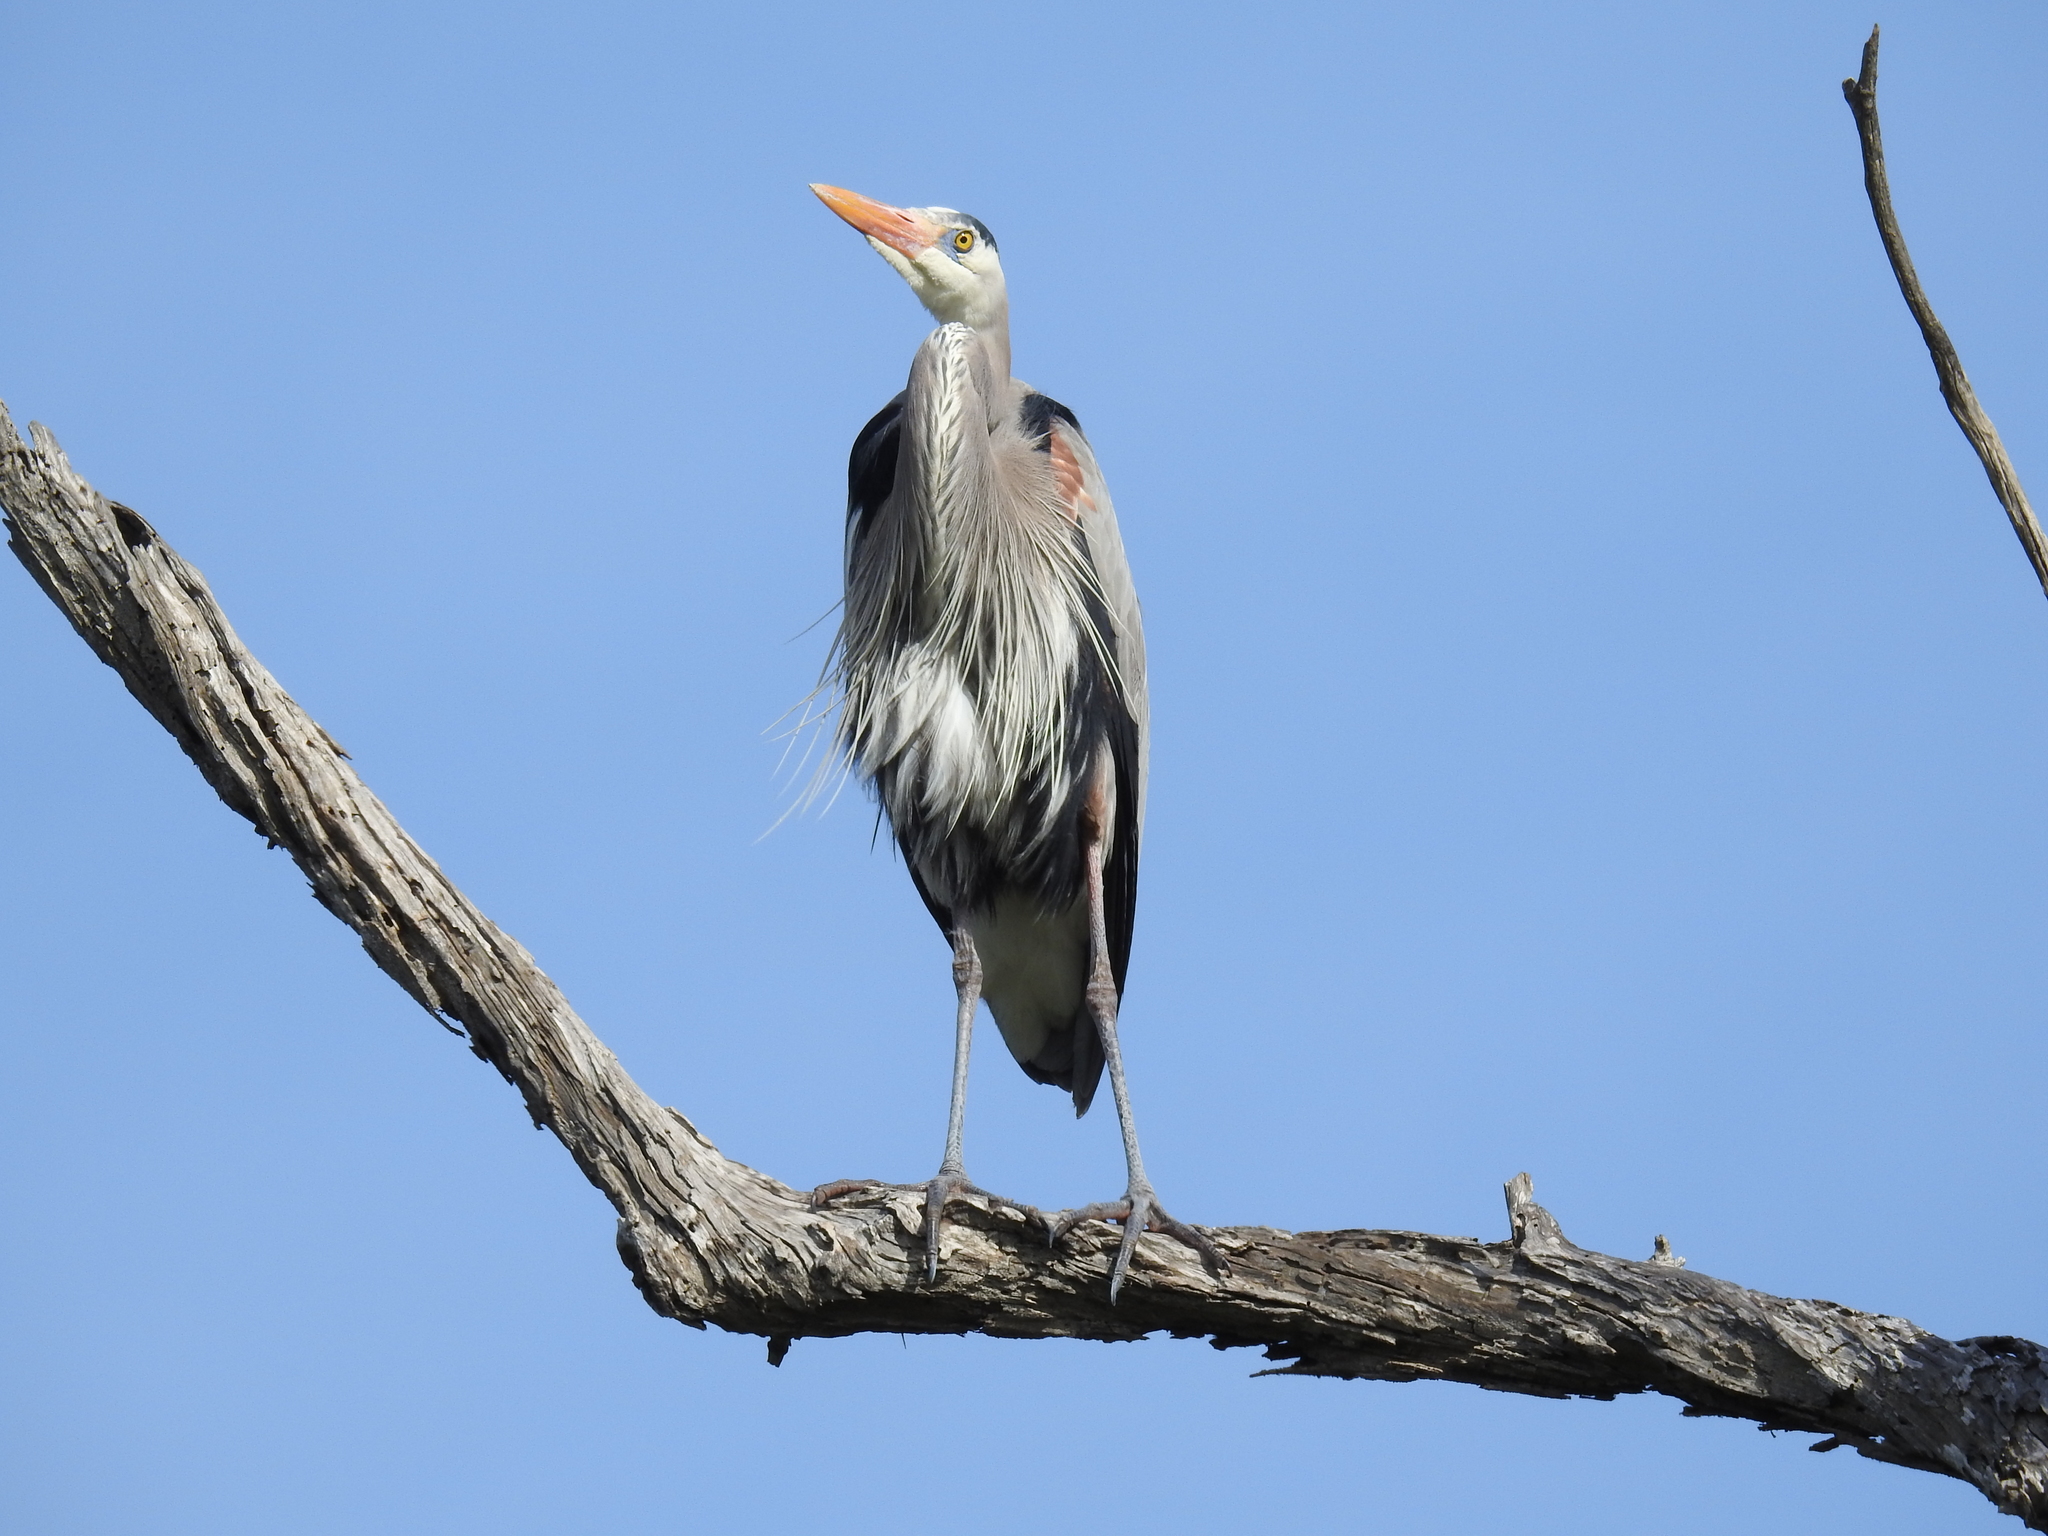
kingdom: Animalia
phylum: Chordata
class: Aves
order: Pelecaniformes
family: Ardeidae
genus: Ardea
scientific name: Ardea herodias
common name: Great blue heron
